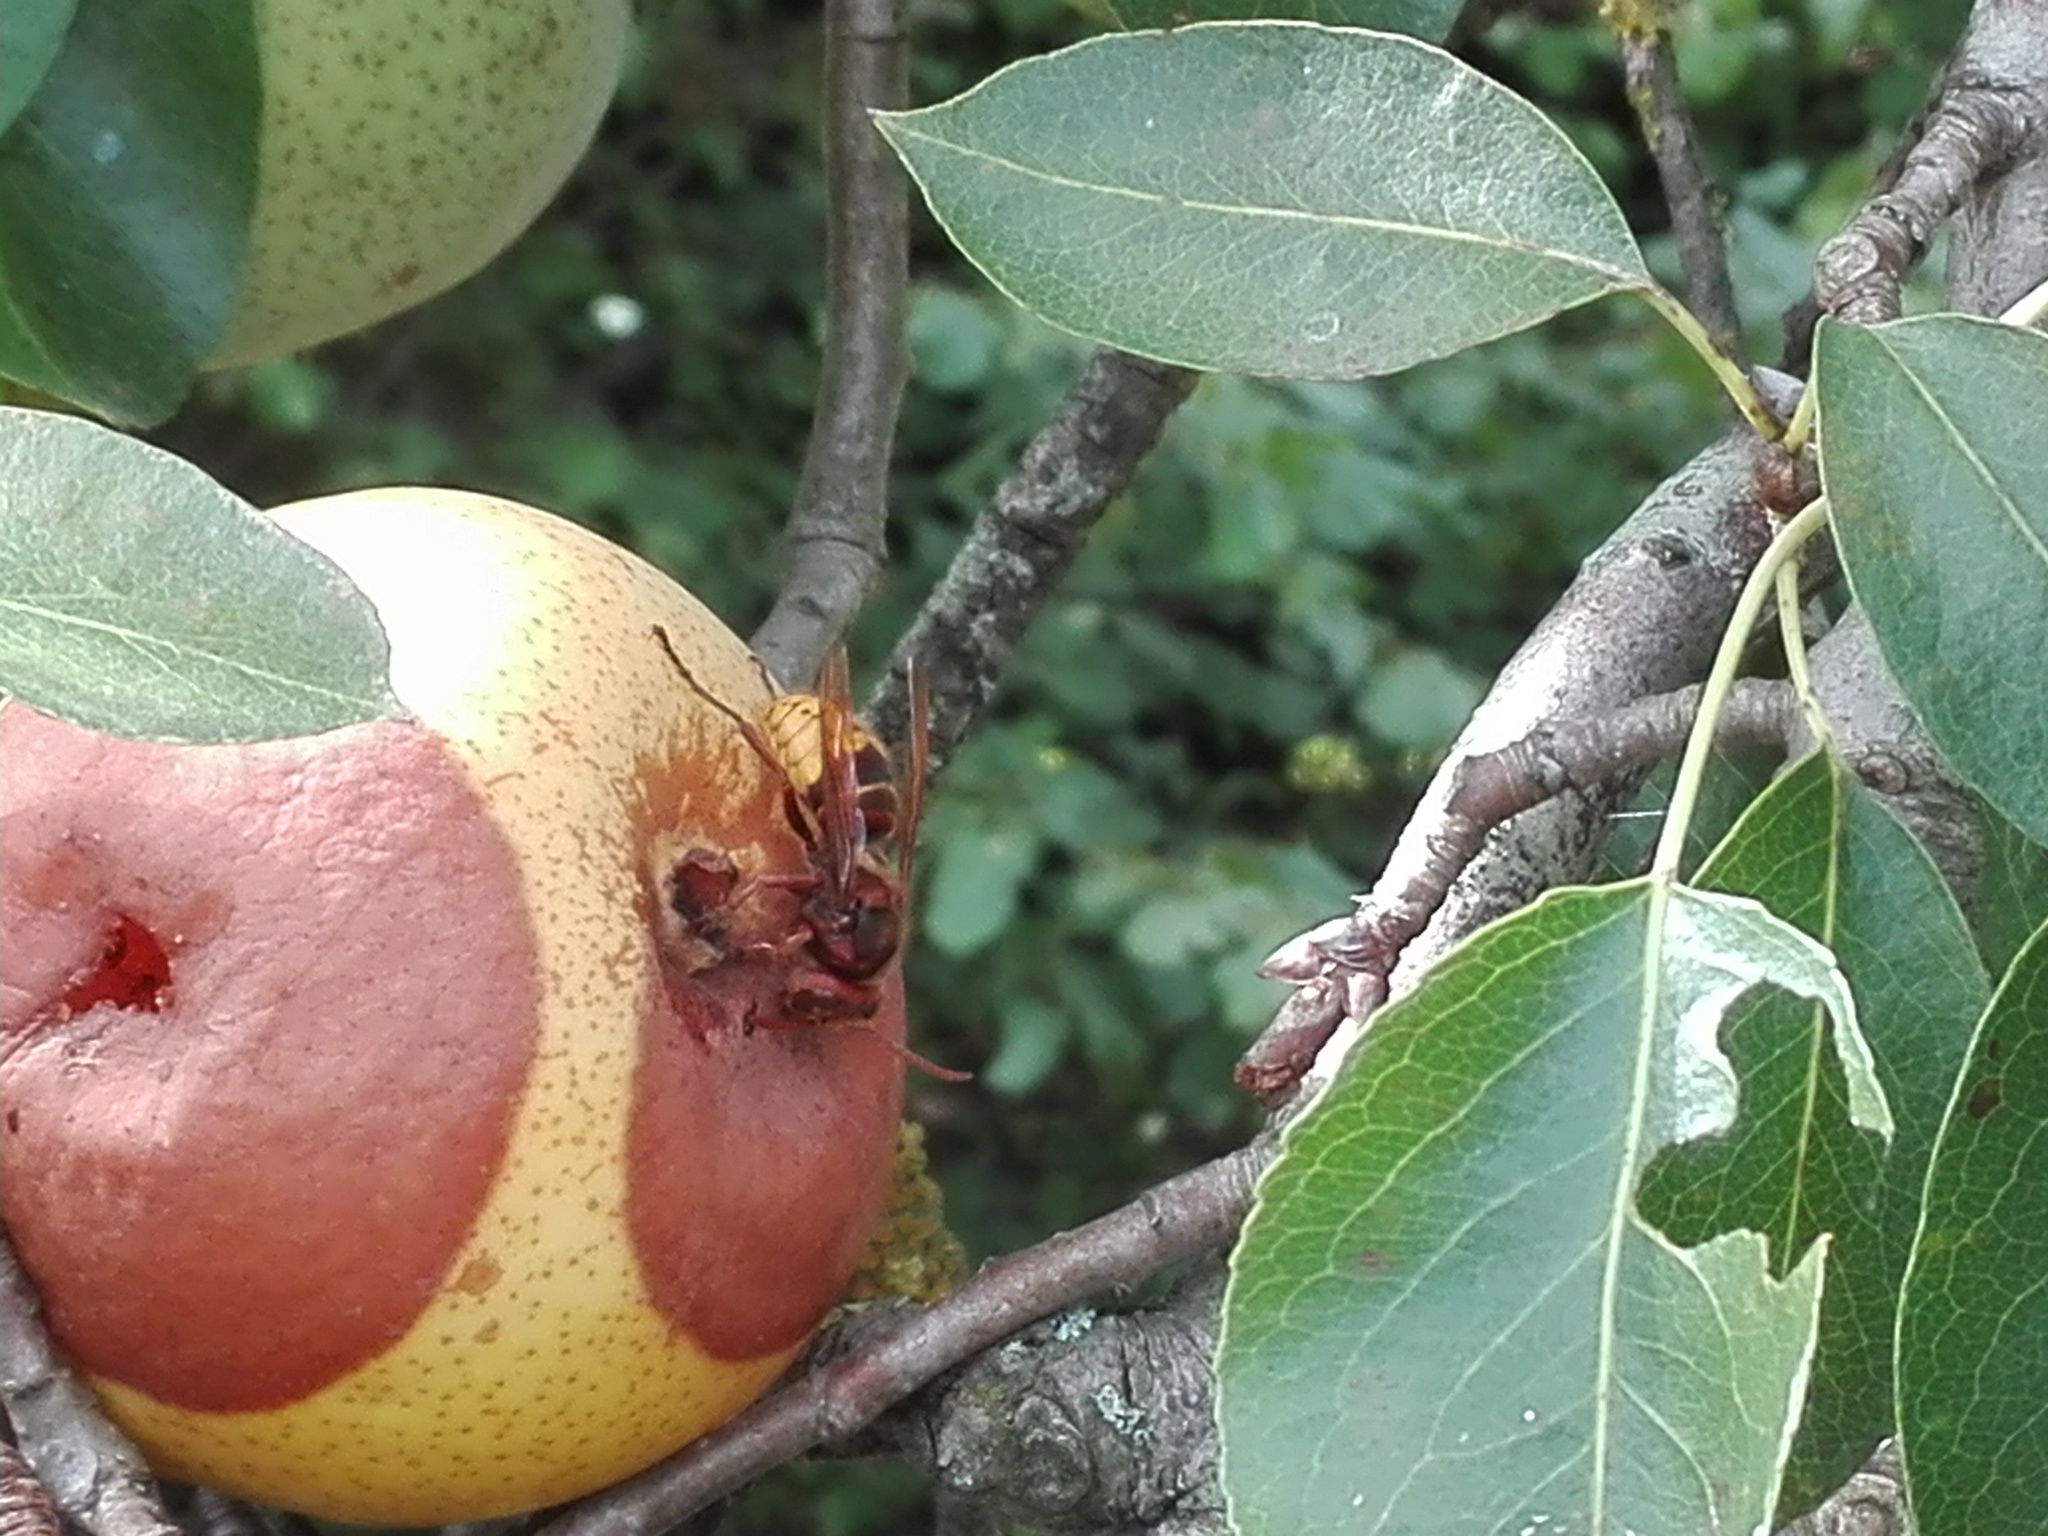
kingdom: Animalia
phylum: Arthropoda
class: Insecta
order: Hymenoptera
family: Vespidae
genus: Vespa
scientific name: Vespa crabro
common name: Hornet
